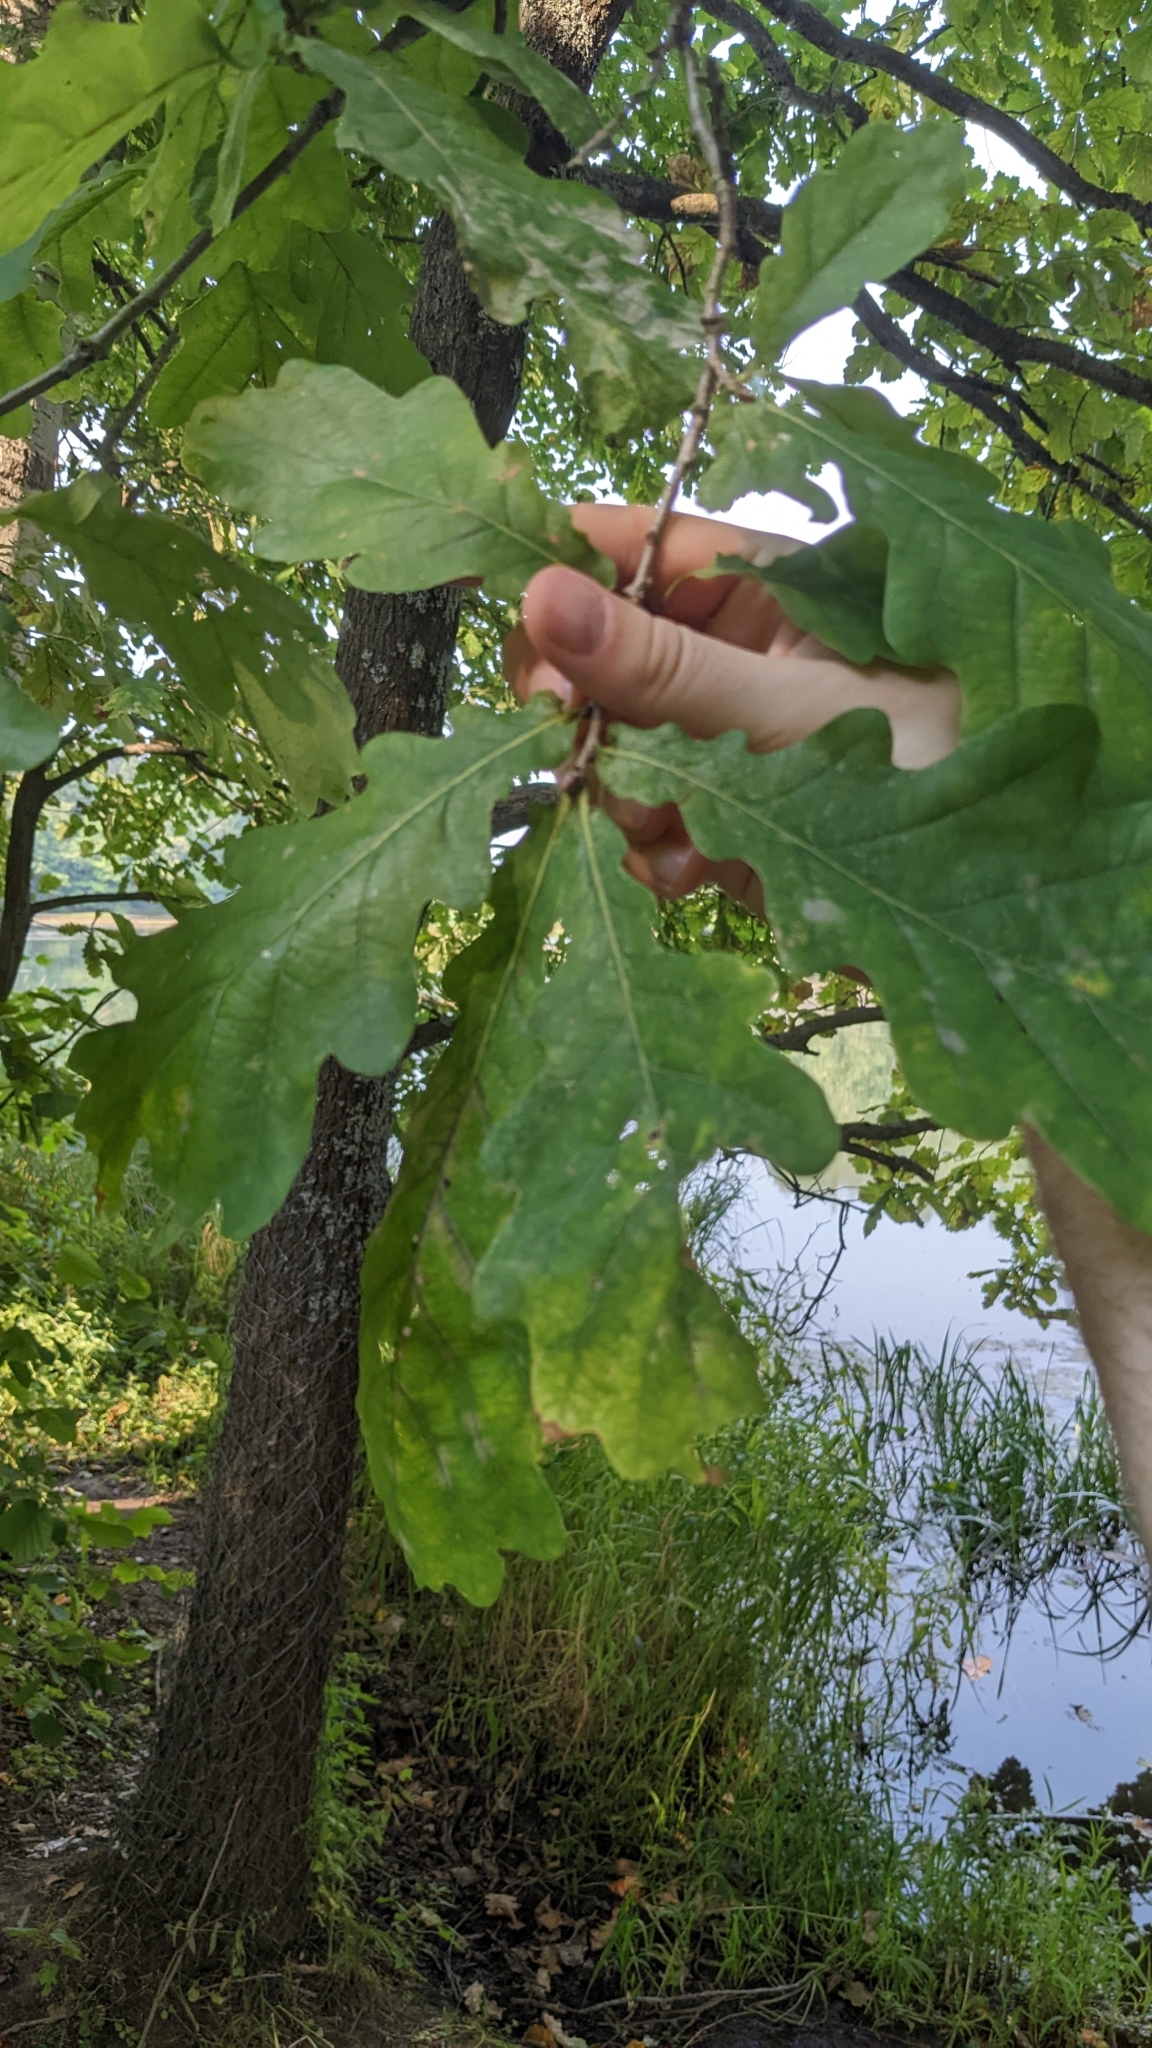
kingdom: Plantae
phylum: Tracheophyta
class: Magnoliopsida
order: Fagales
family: Fagaceae
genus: Quercus
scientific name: Quercus robur
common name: Pedunculate oak
